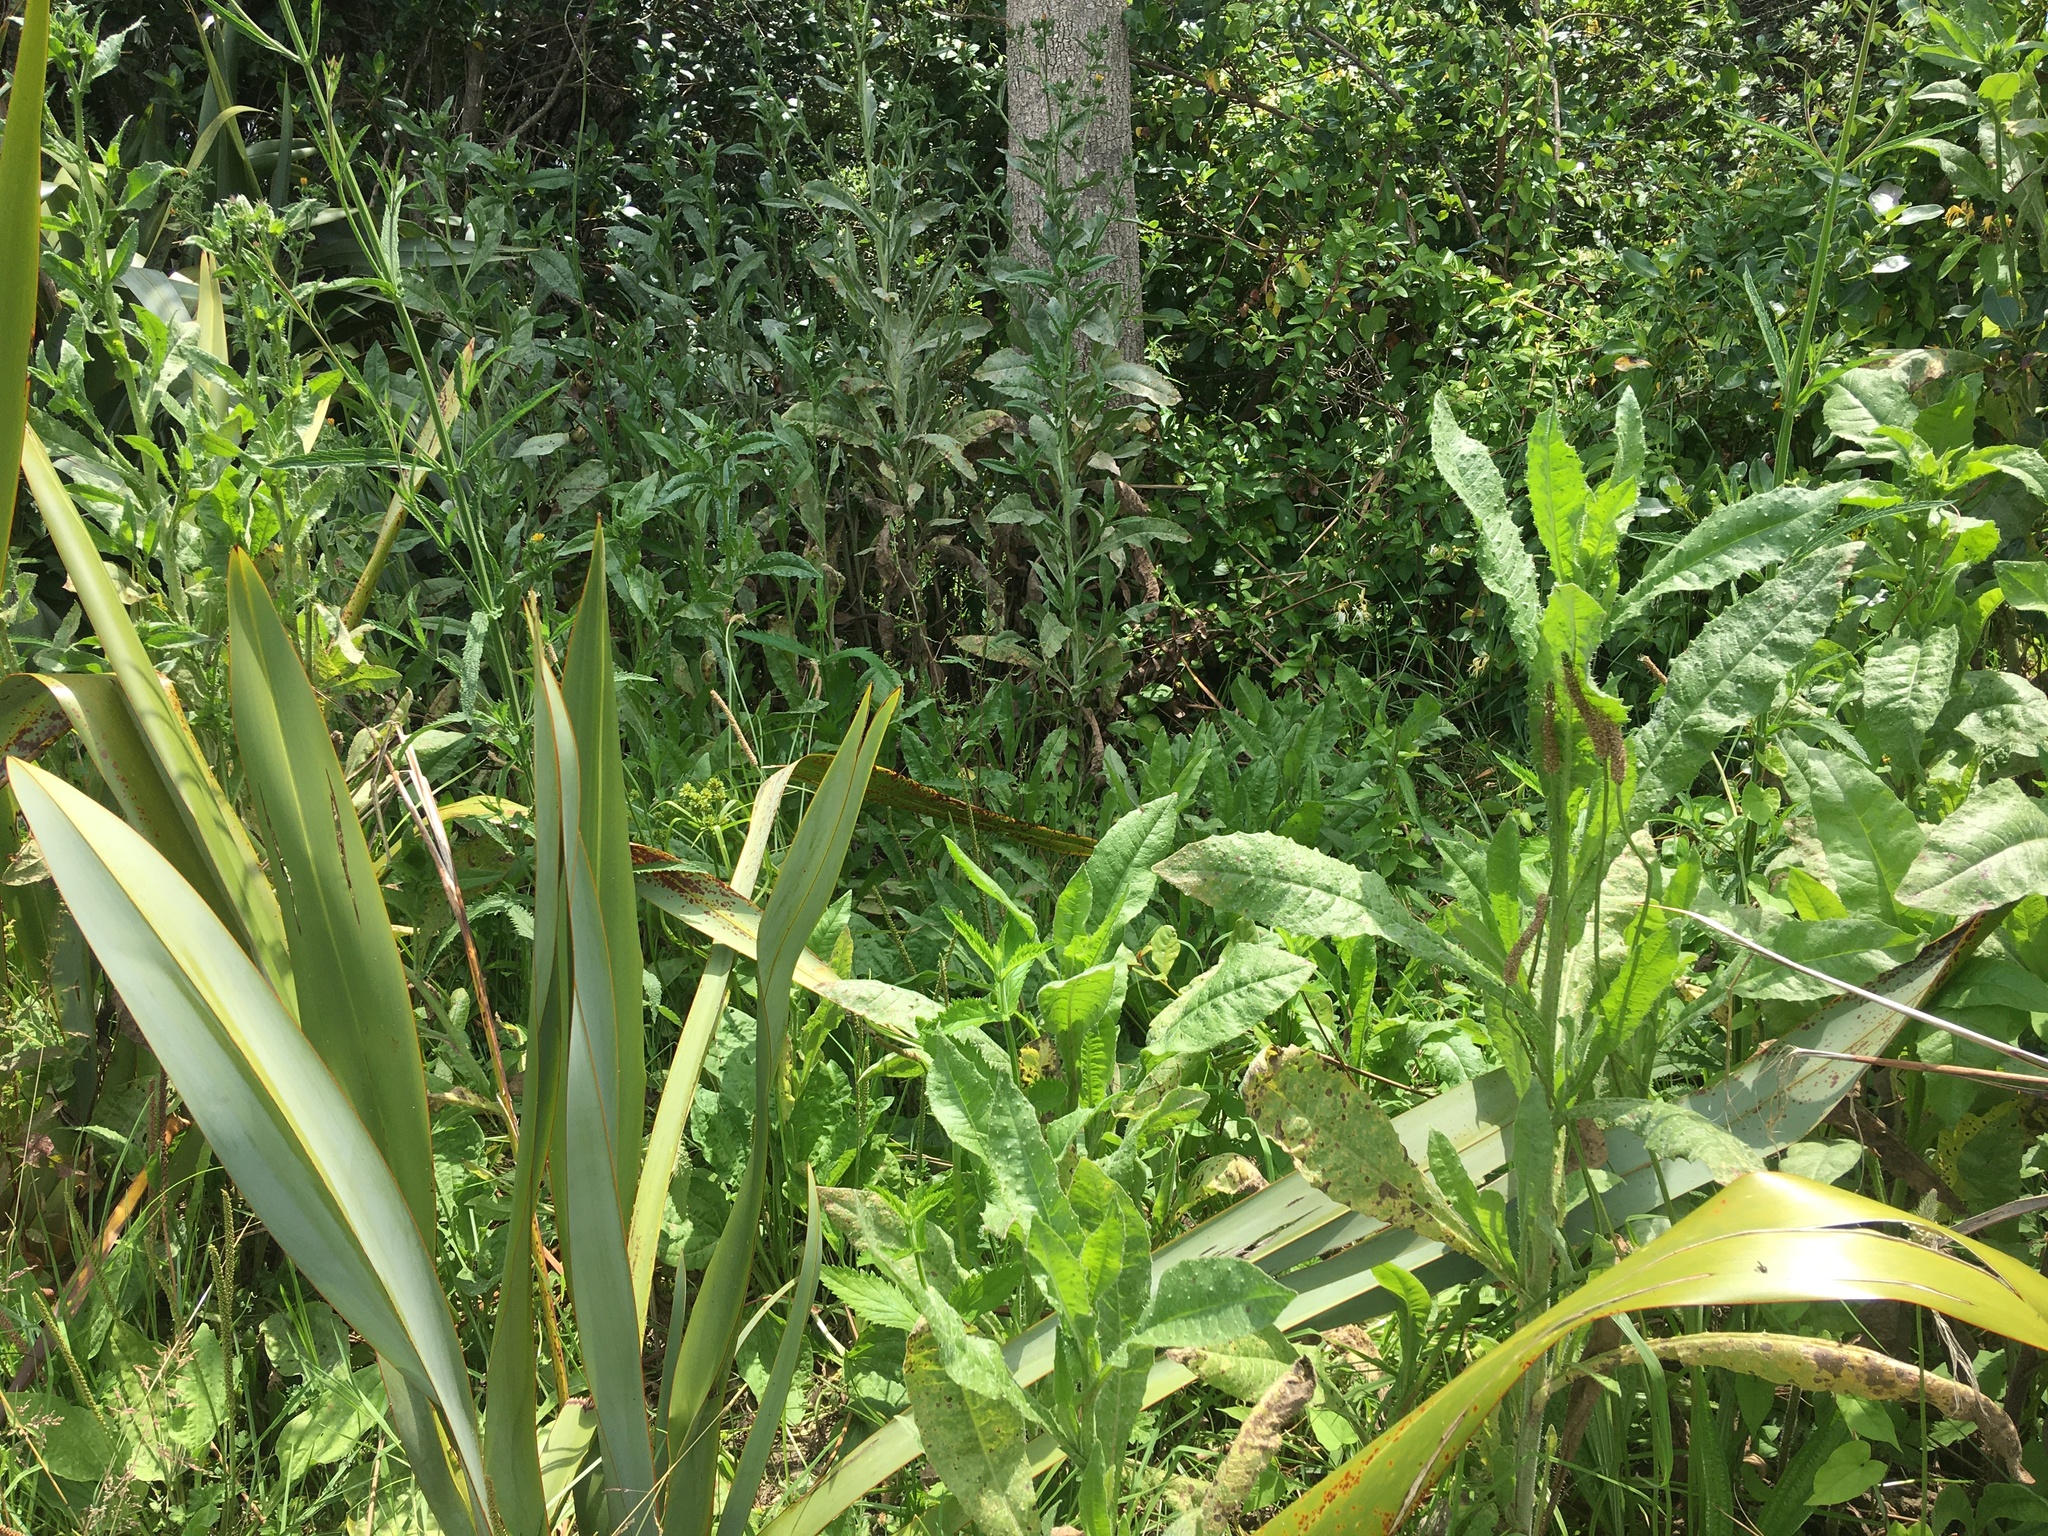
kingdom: Plantae
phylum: Tracheophyta
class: Magnoliopsida
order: Asterales
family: Asteraceae
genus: Helminthotheca
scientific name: Helminthotheca echioides
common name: Ox-tongue
